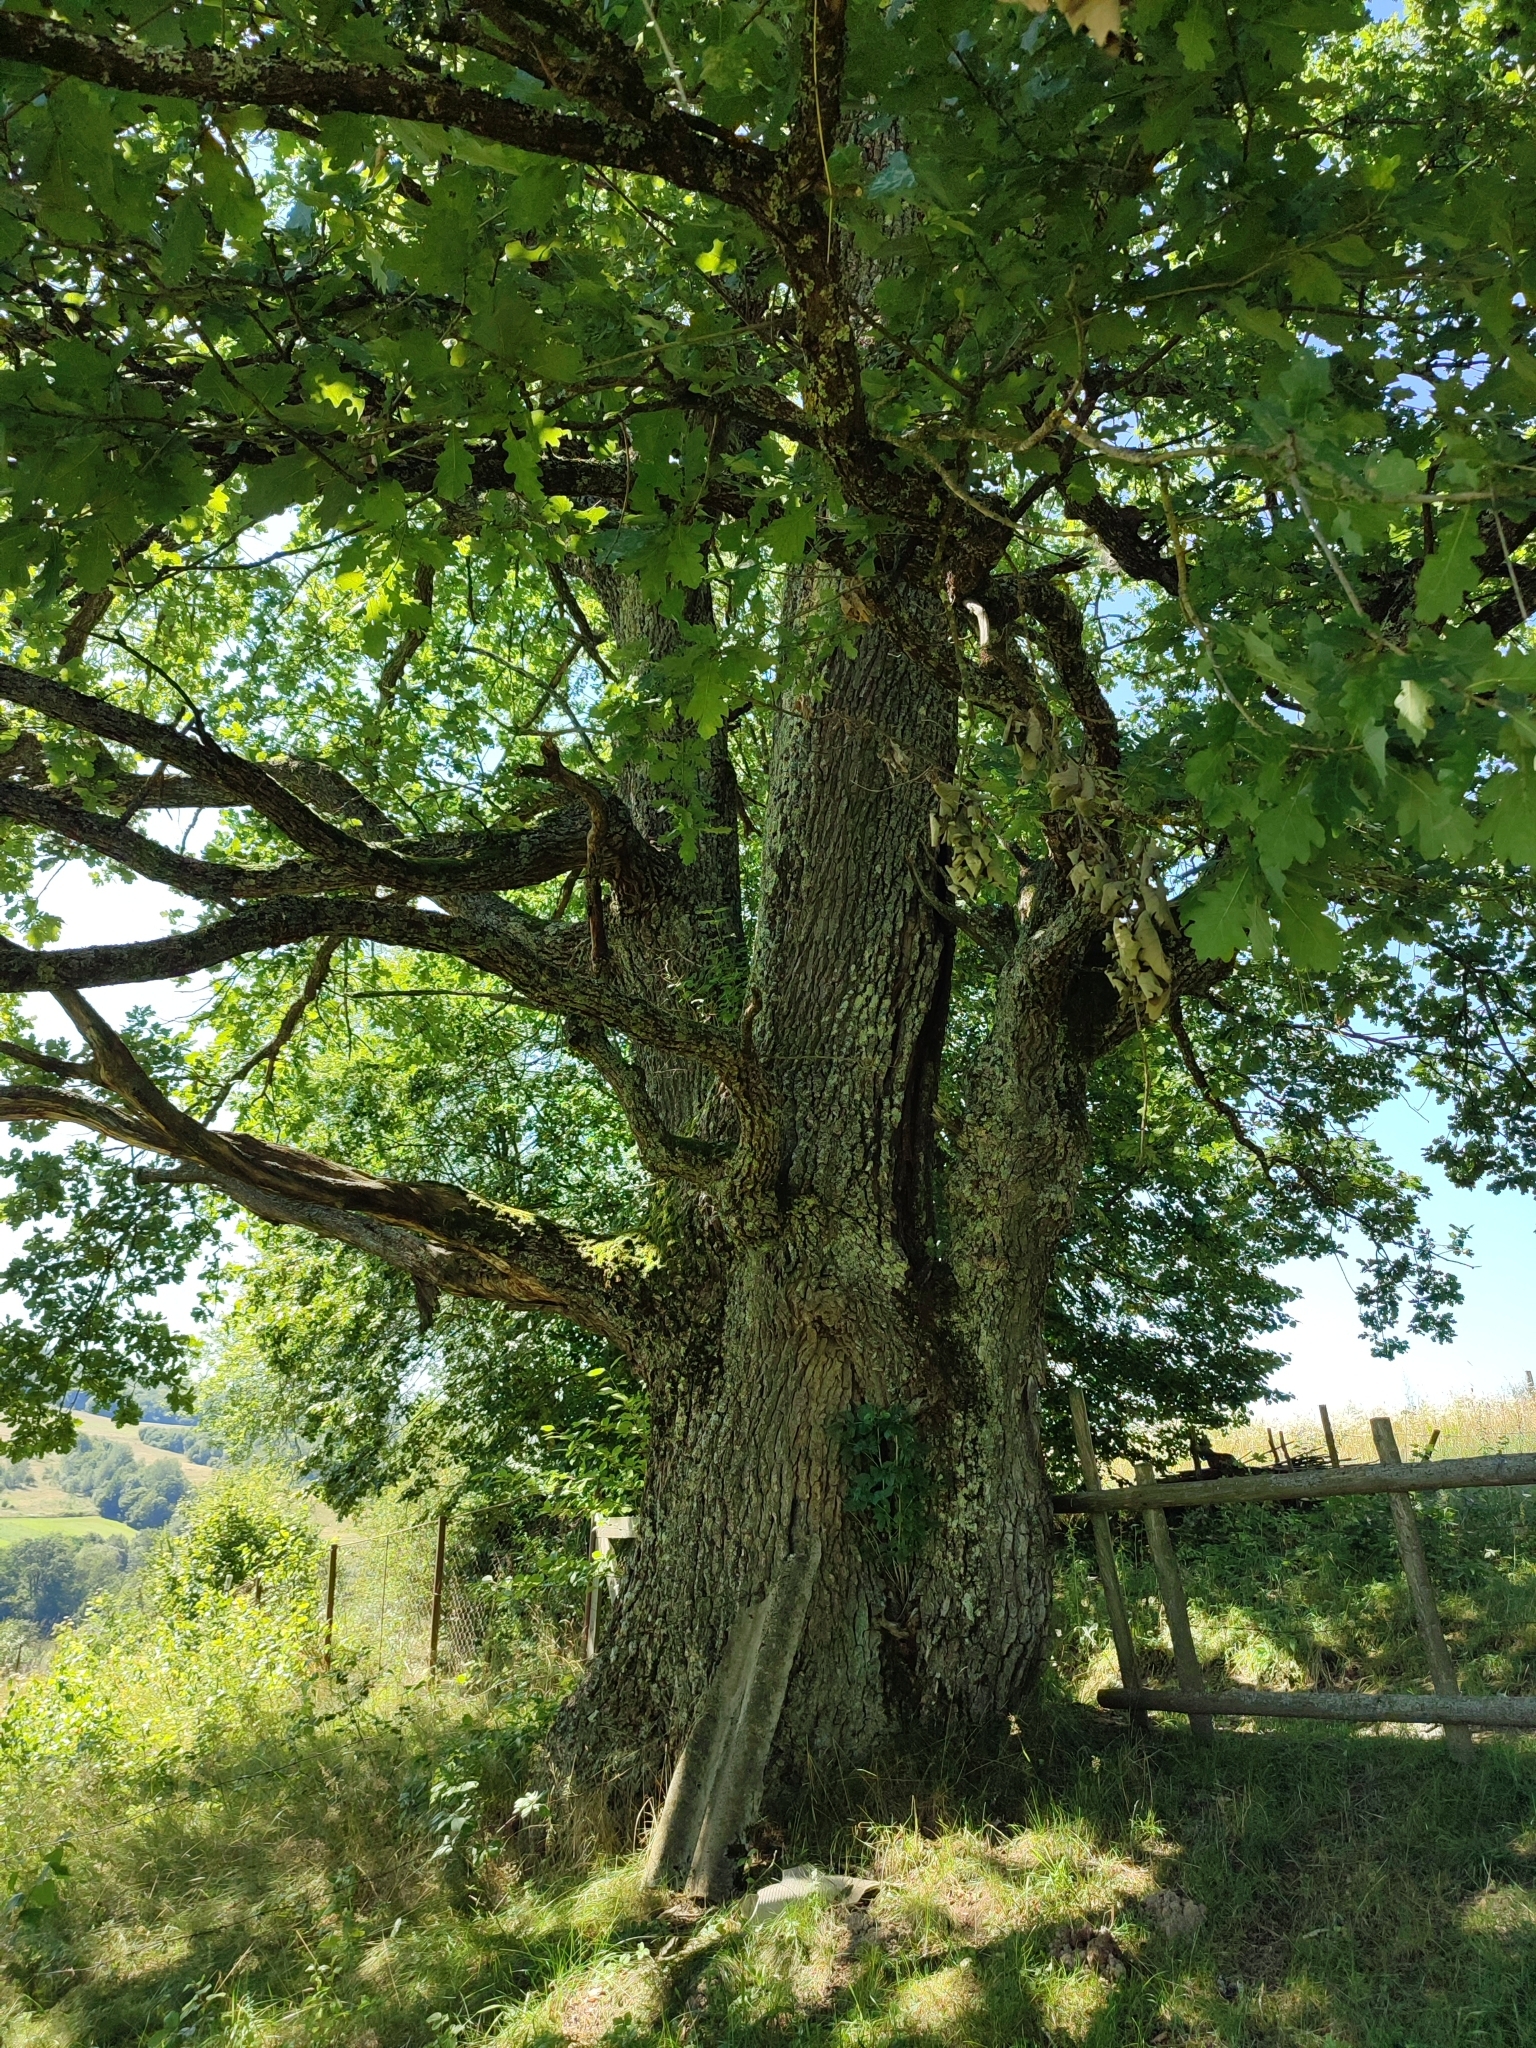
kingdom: Plantae
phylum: Tracheophyta
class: Magnoliopsida
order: Fagales
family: Fagaceae
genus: Quercus
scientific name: Quercus robur
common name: Pedunculate oak
